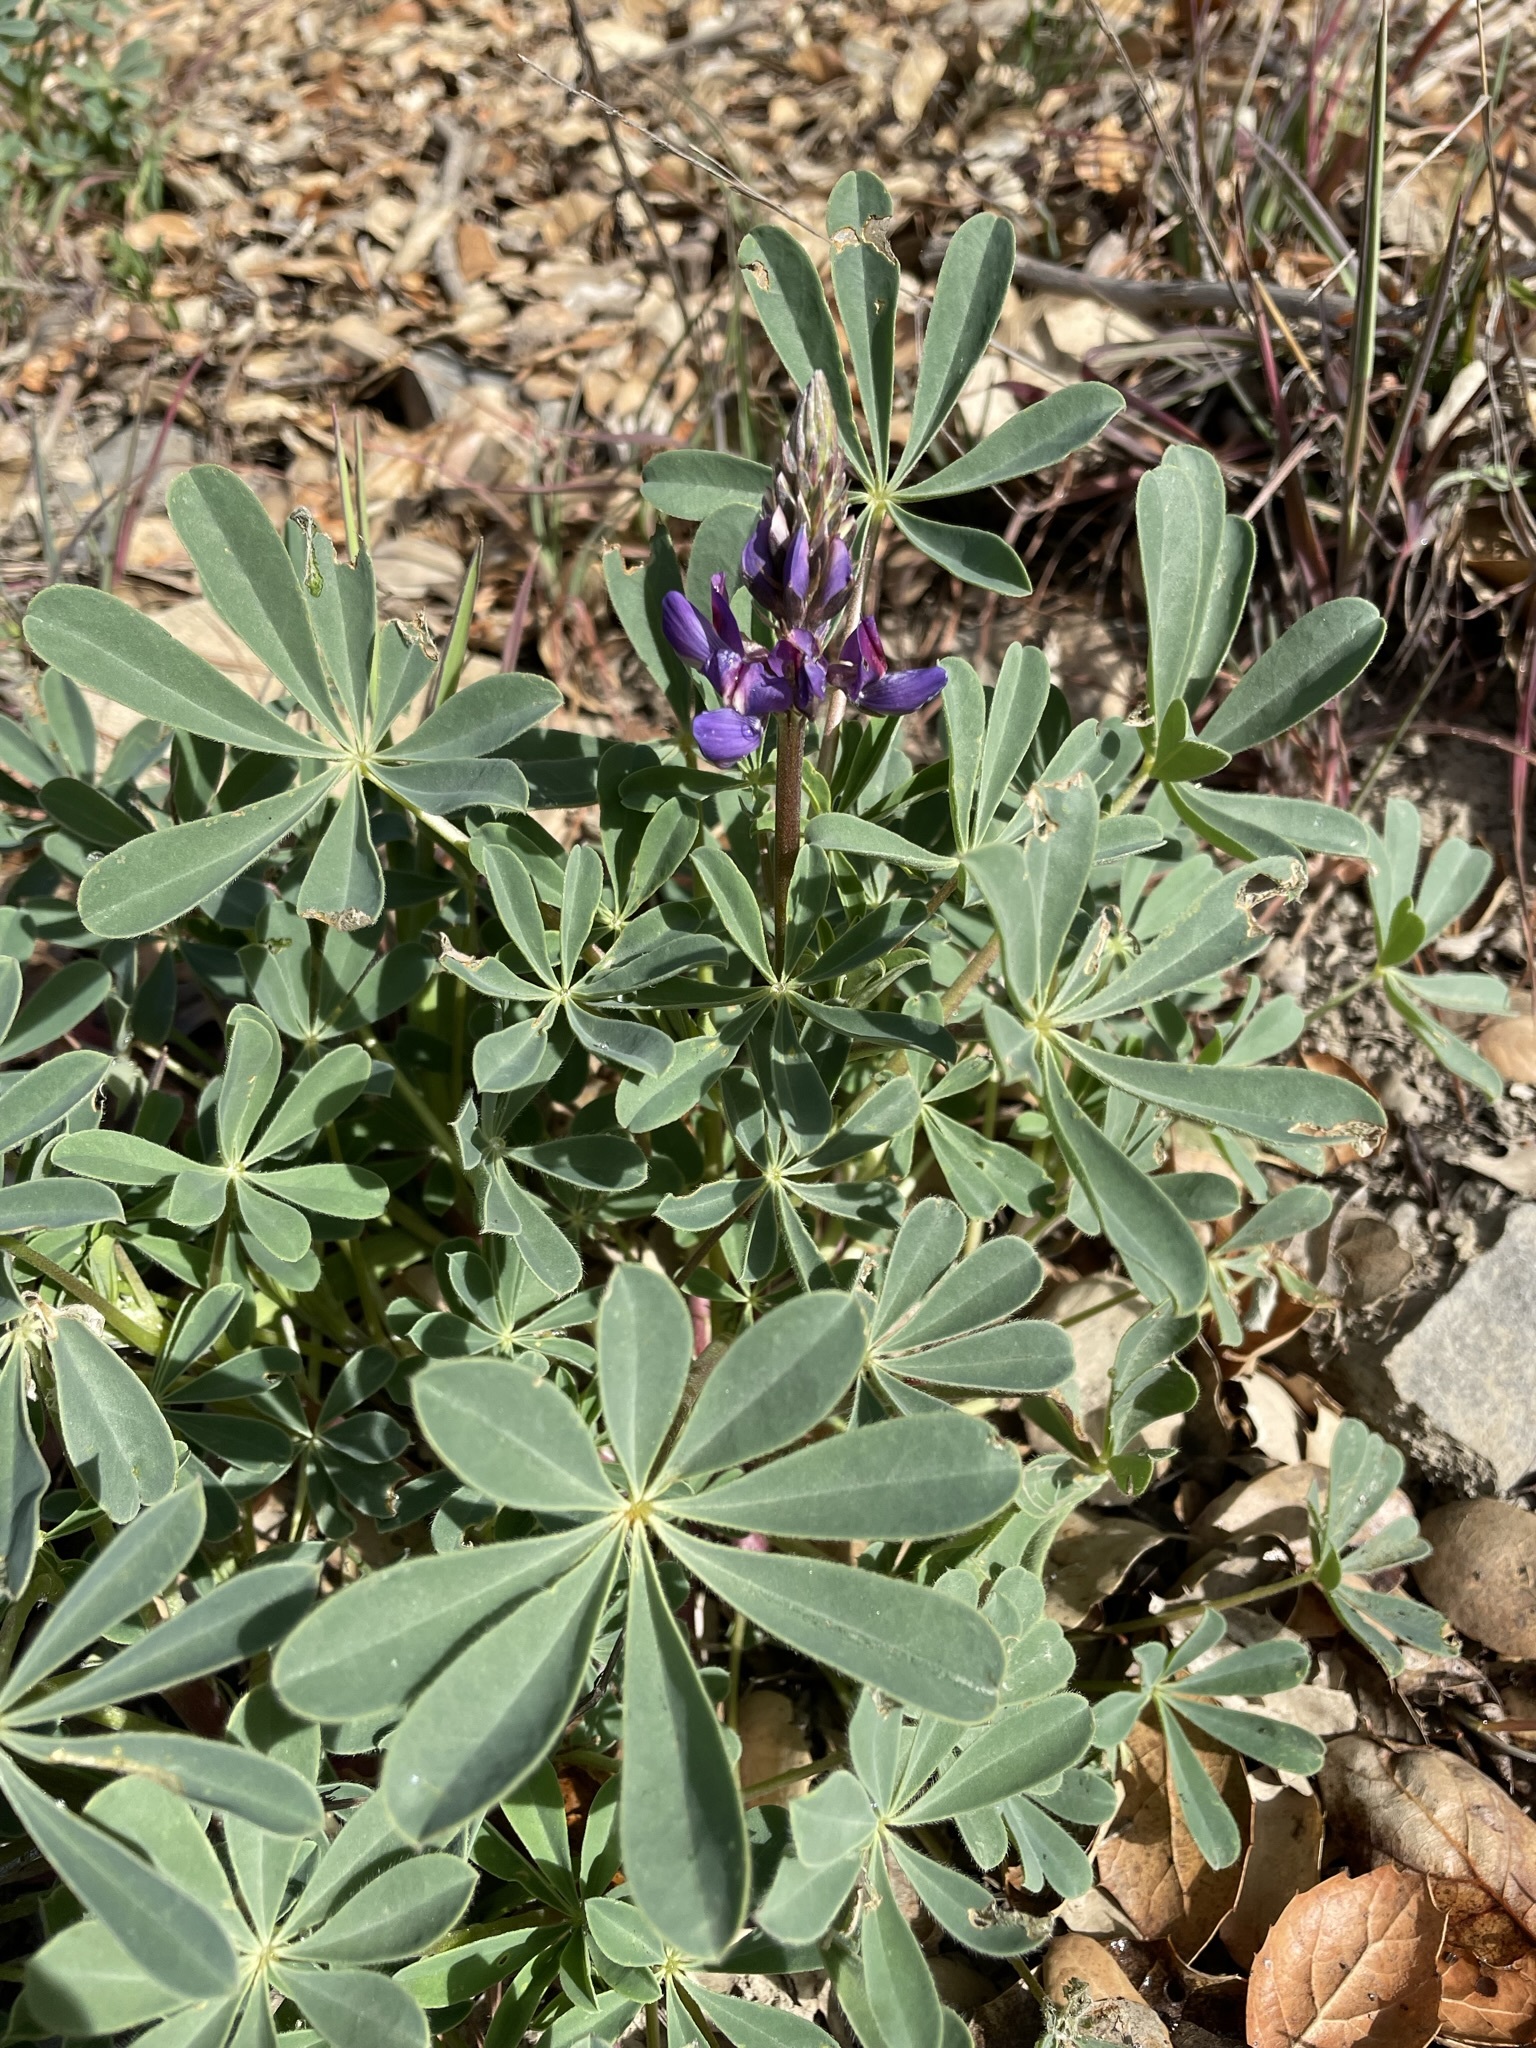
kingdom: Plantae
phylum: Tracheophyta
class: Magnoliopsida
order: Fabales
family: Fabaceae
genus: Lupinus
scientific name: Lupinus succulentus
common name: Arroyo lupine
